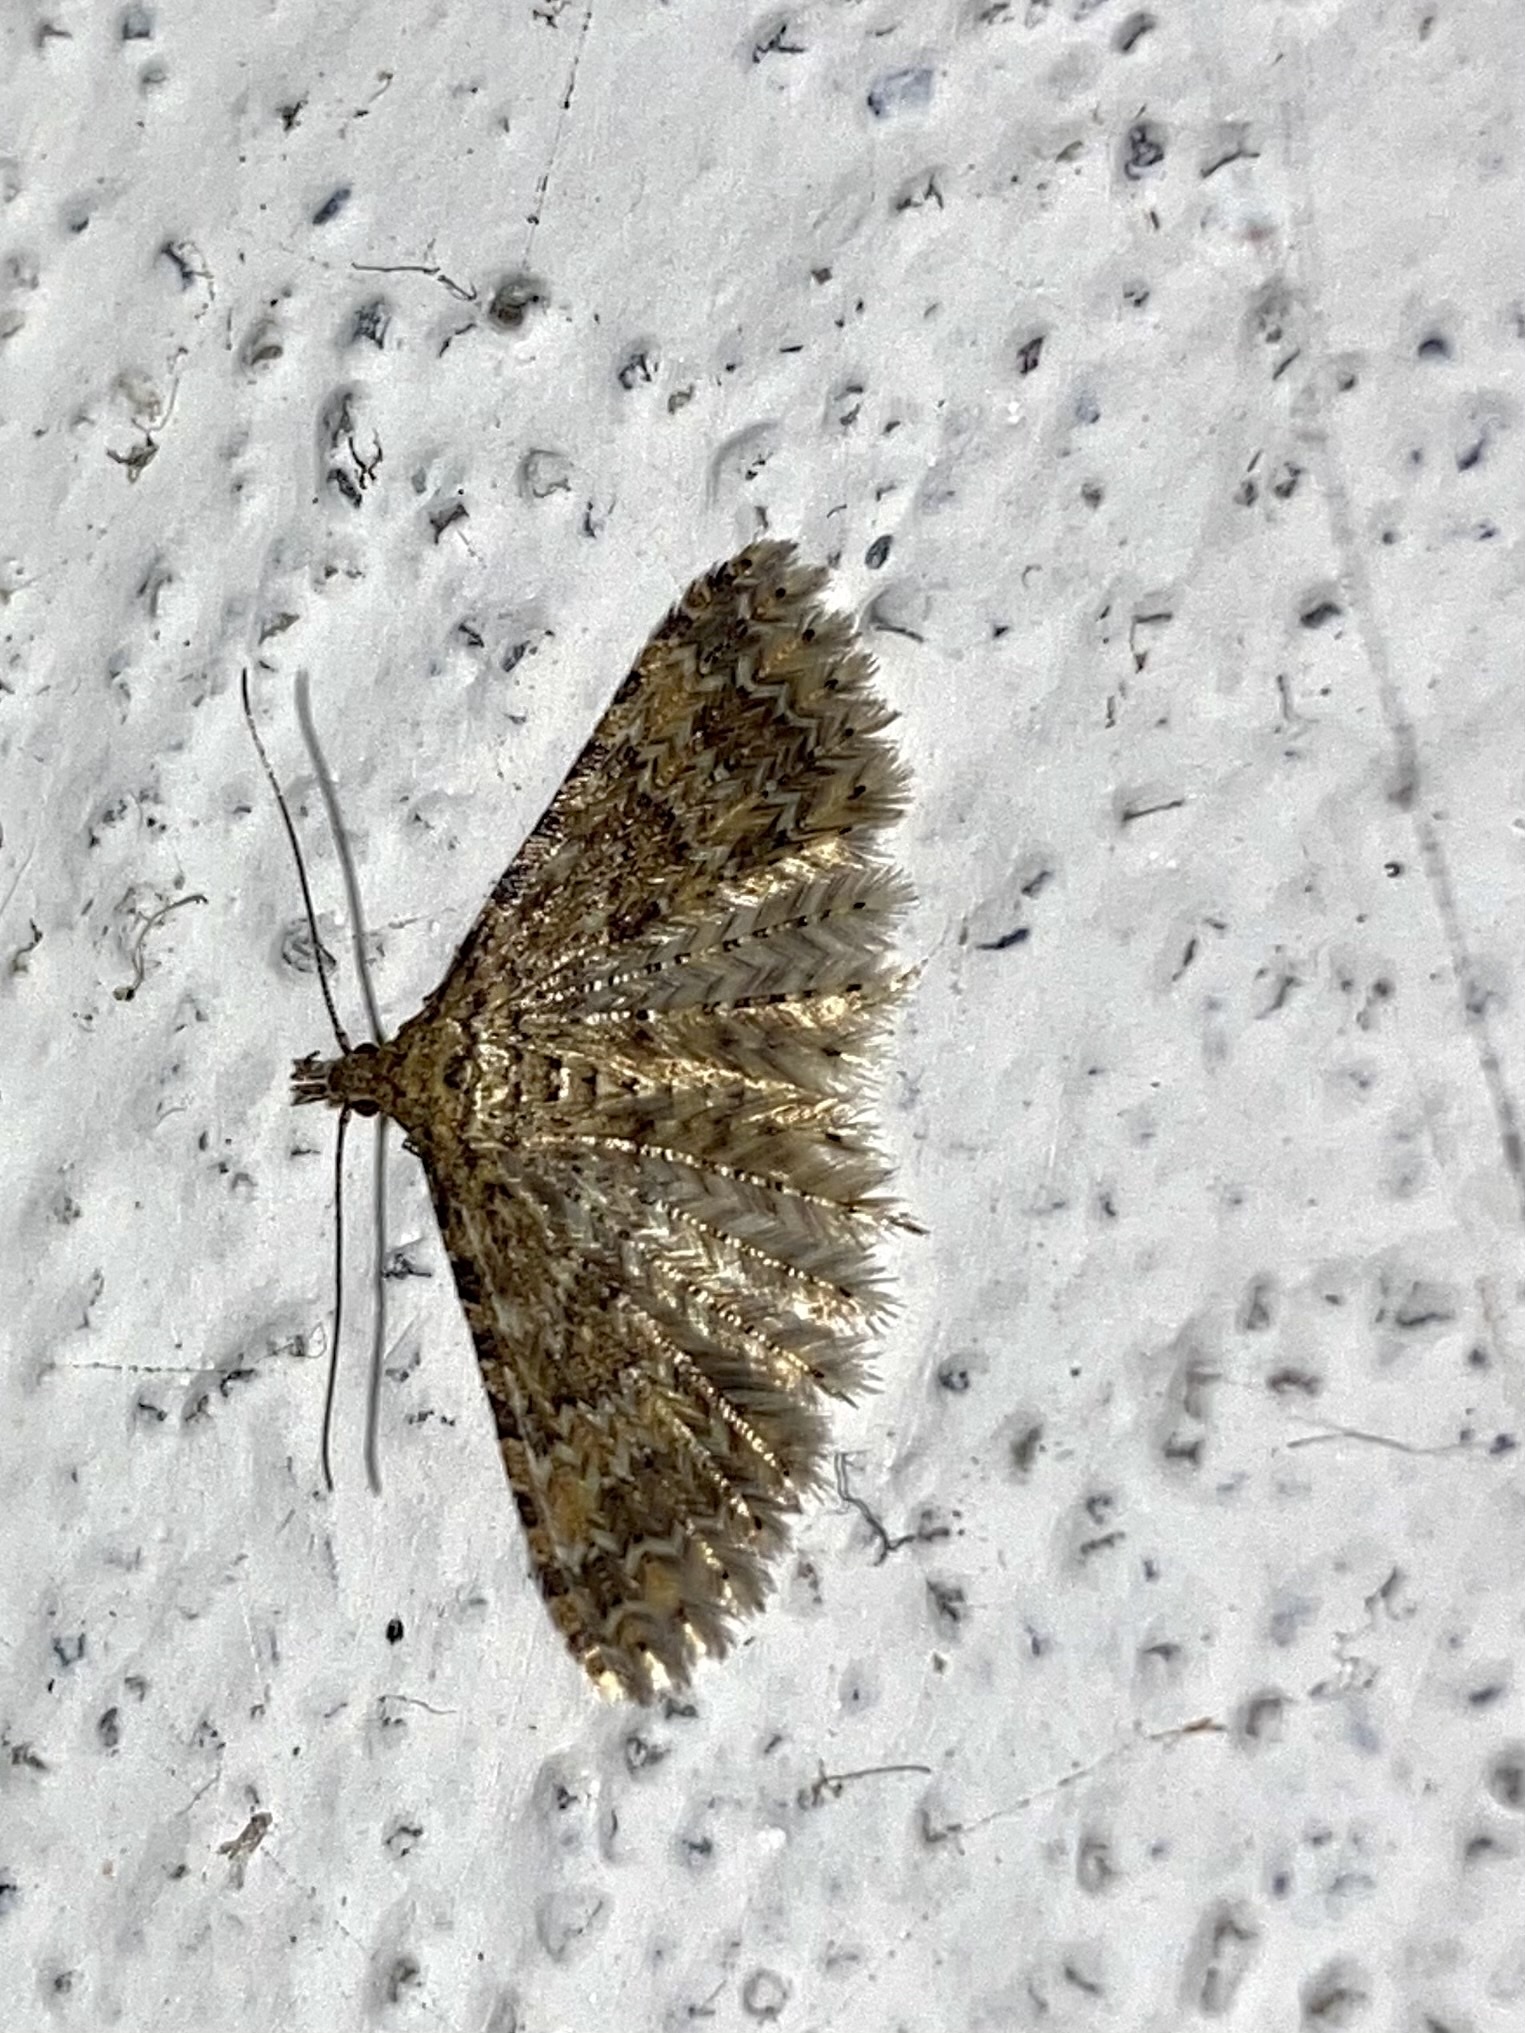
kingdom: Animalia
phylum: Arthropoda
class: Insecta
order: Lepidoptera
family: Alucitidae
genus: Alucita
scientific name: Alucita
